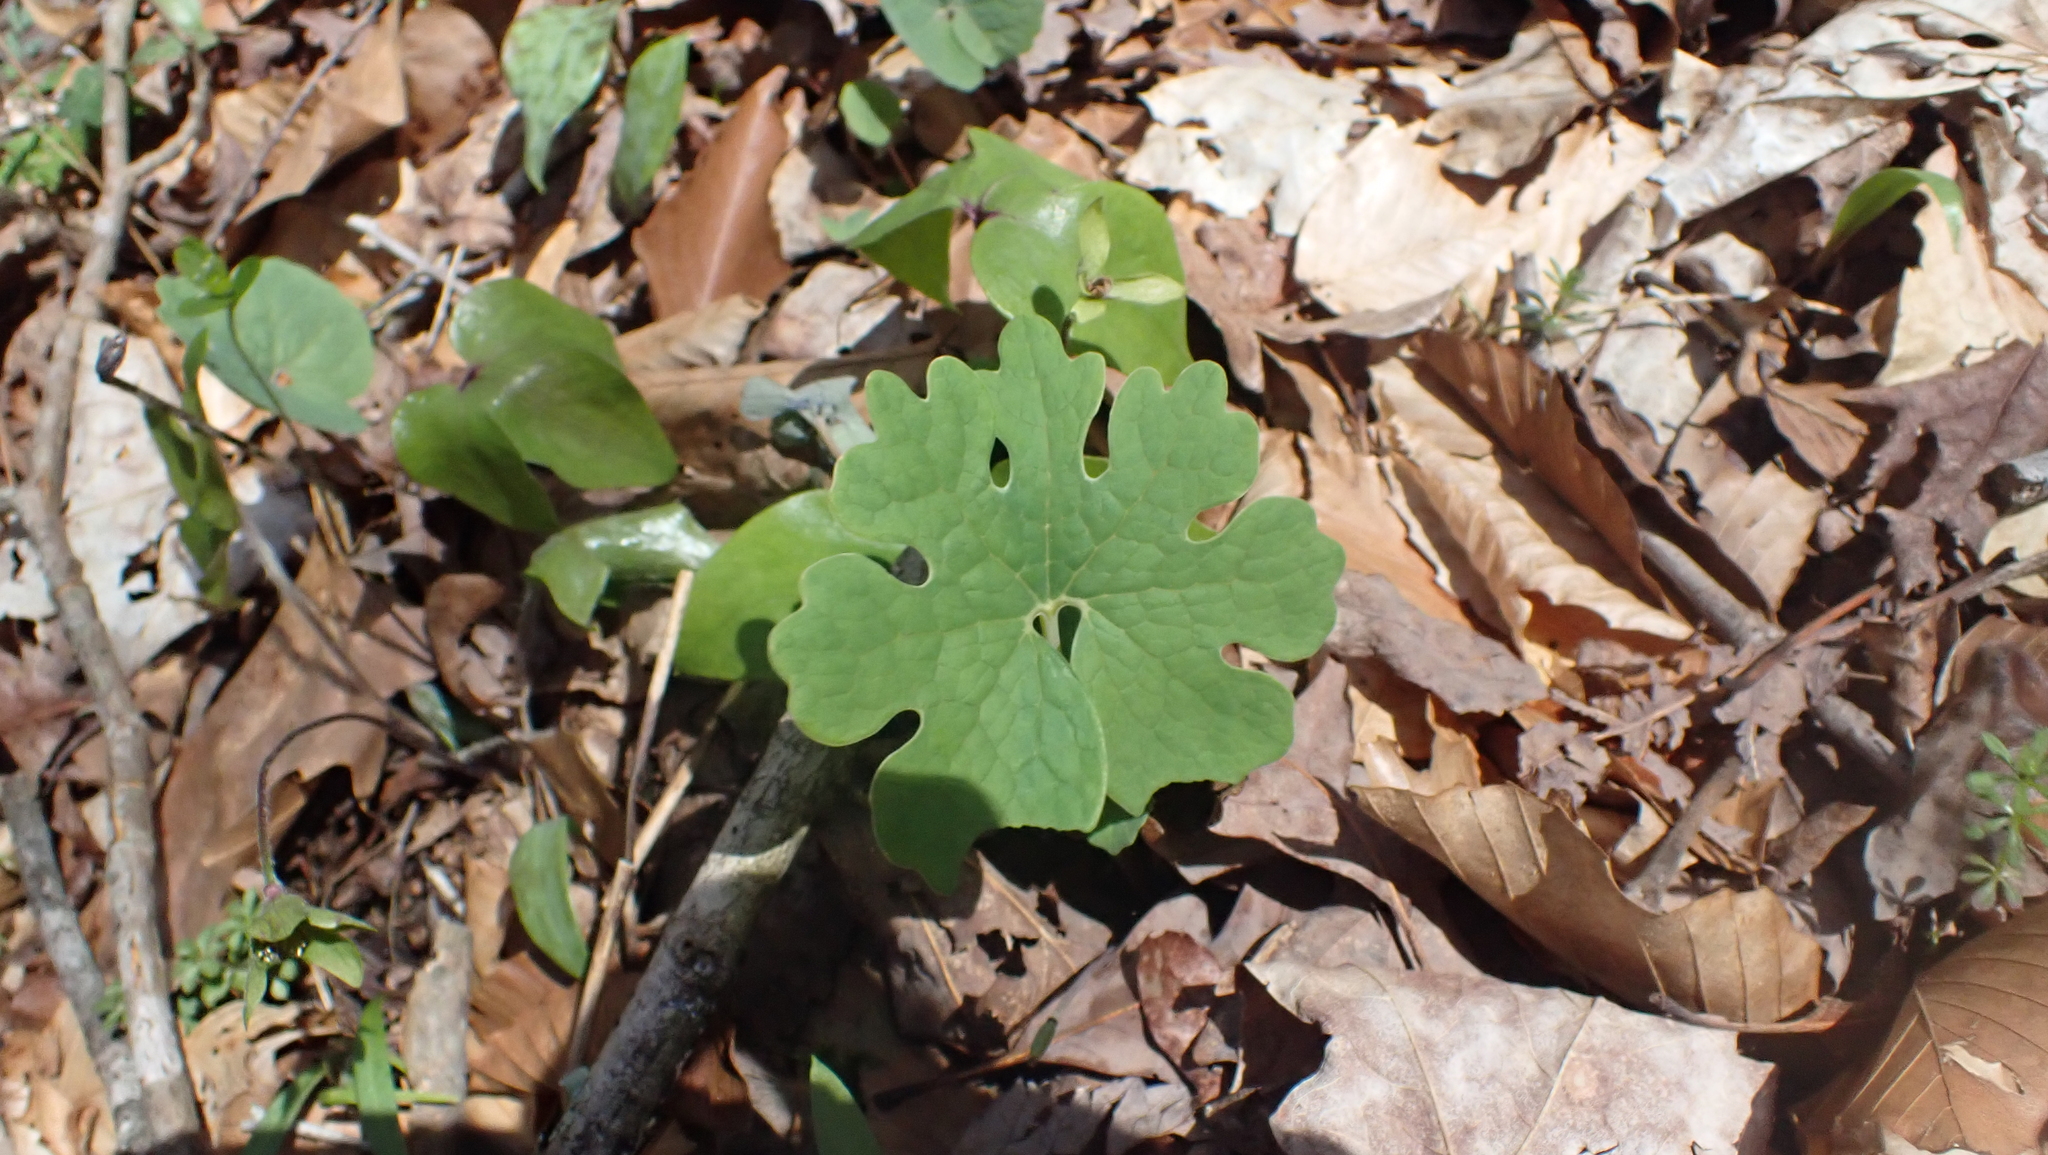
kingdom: Plantae
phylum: Tracheophyta
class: Magnoliopsida
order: Ranunculales
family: Papaveraceae
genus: Sanguinaria
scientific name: Sanguinaria canadensis
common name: Bloodroot
